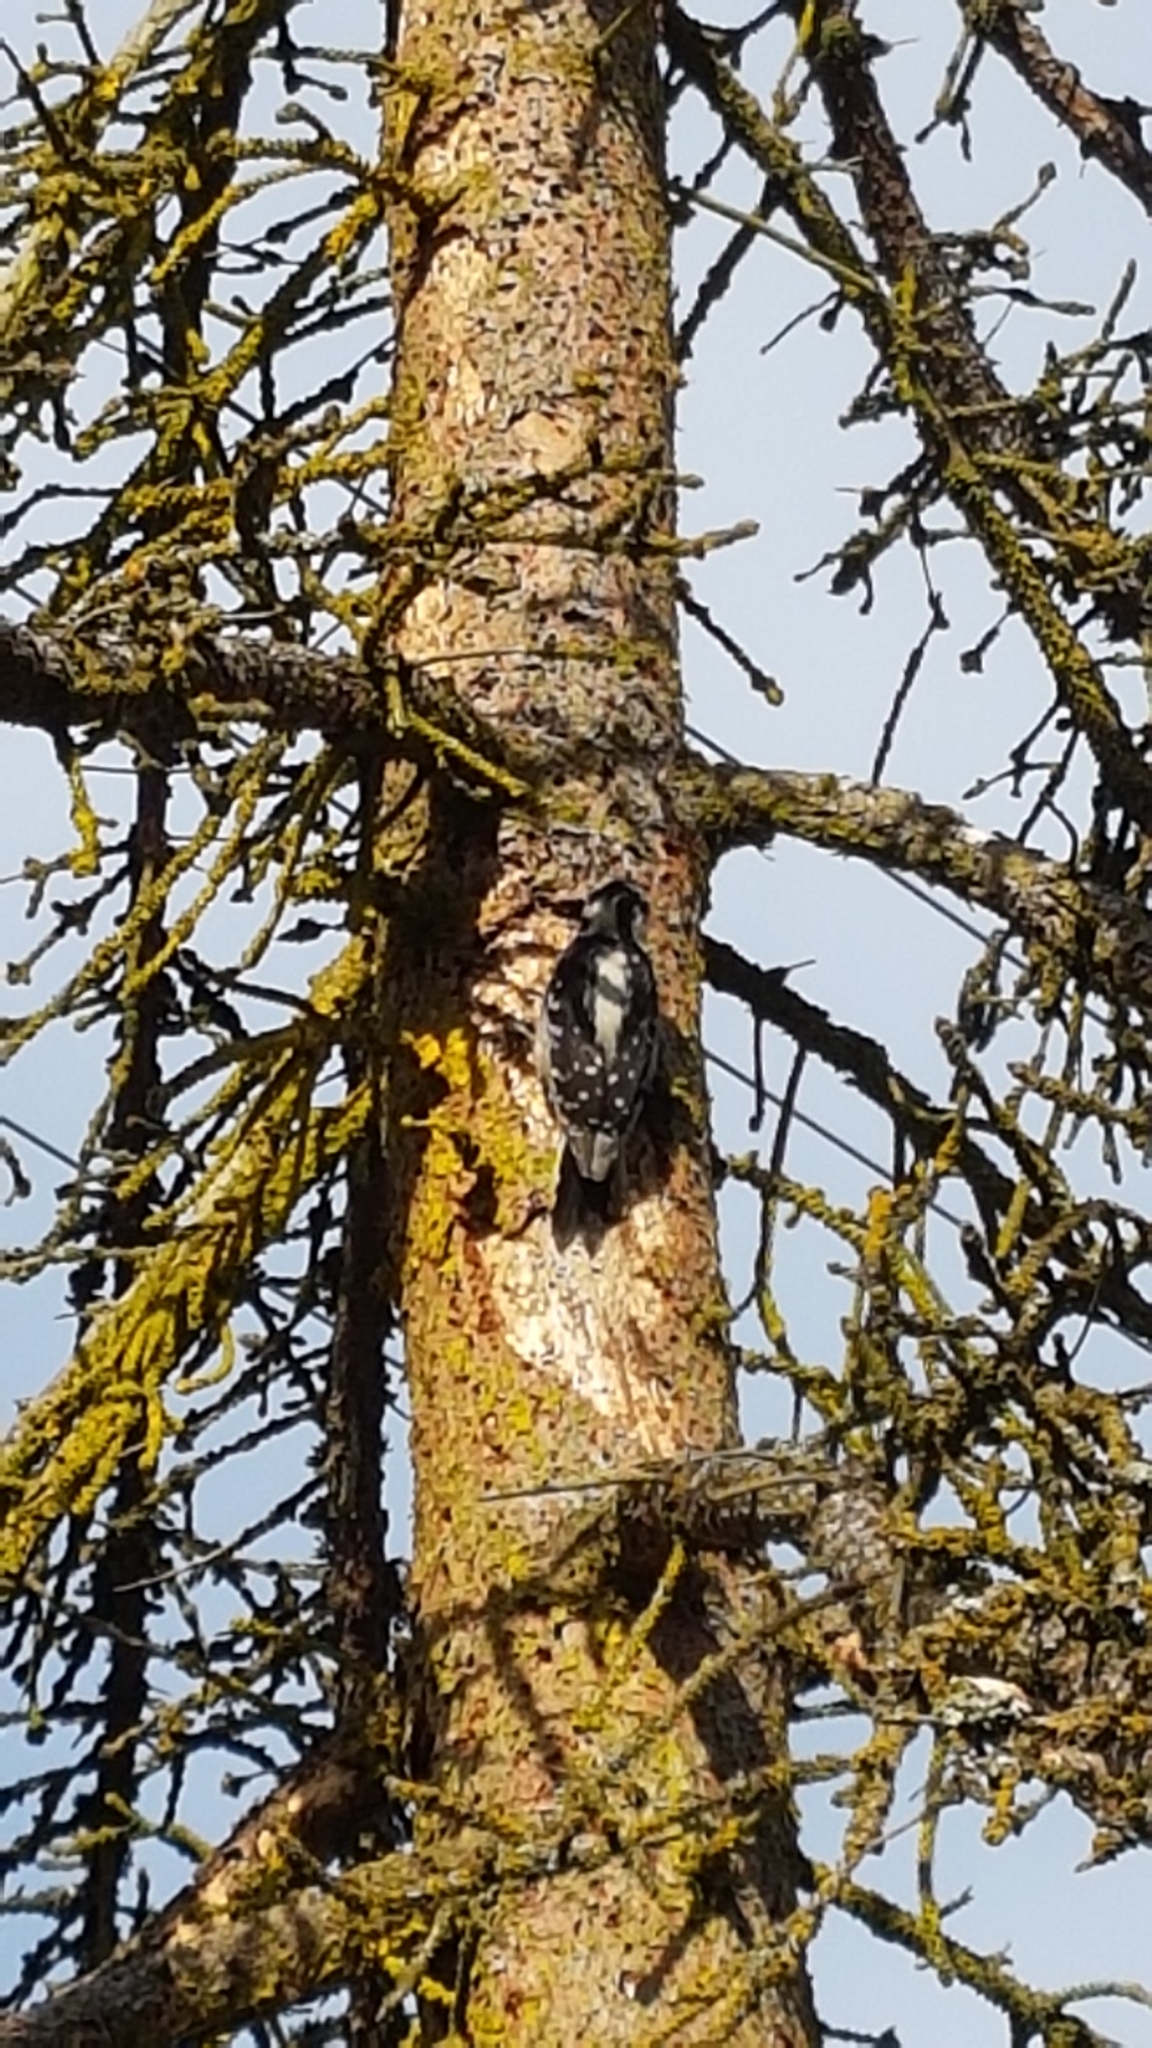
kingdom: Animalia
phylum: Chordata
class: Aves
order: Piciformes
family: Picidae
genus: Dryobates
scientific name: Dryobates pubescens
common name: Downy woodpecker
